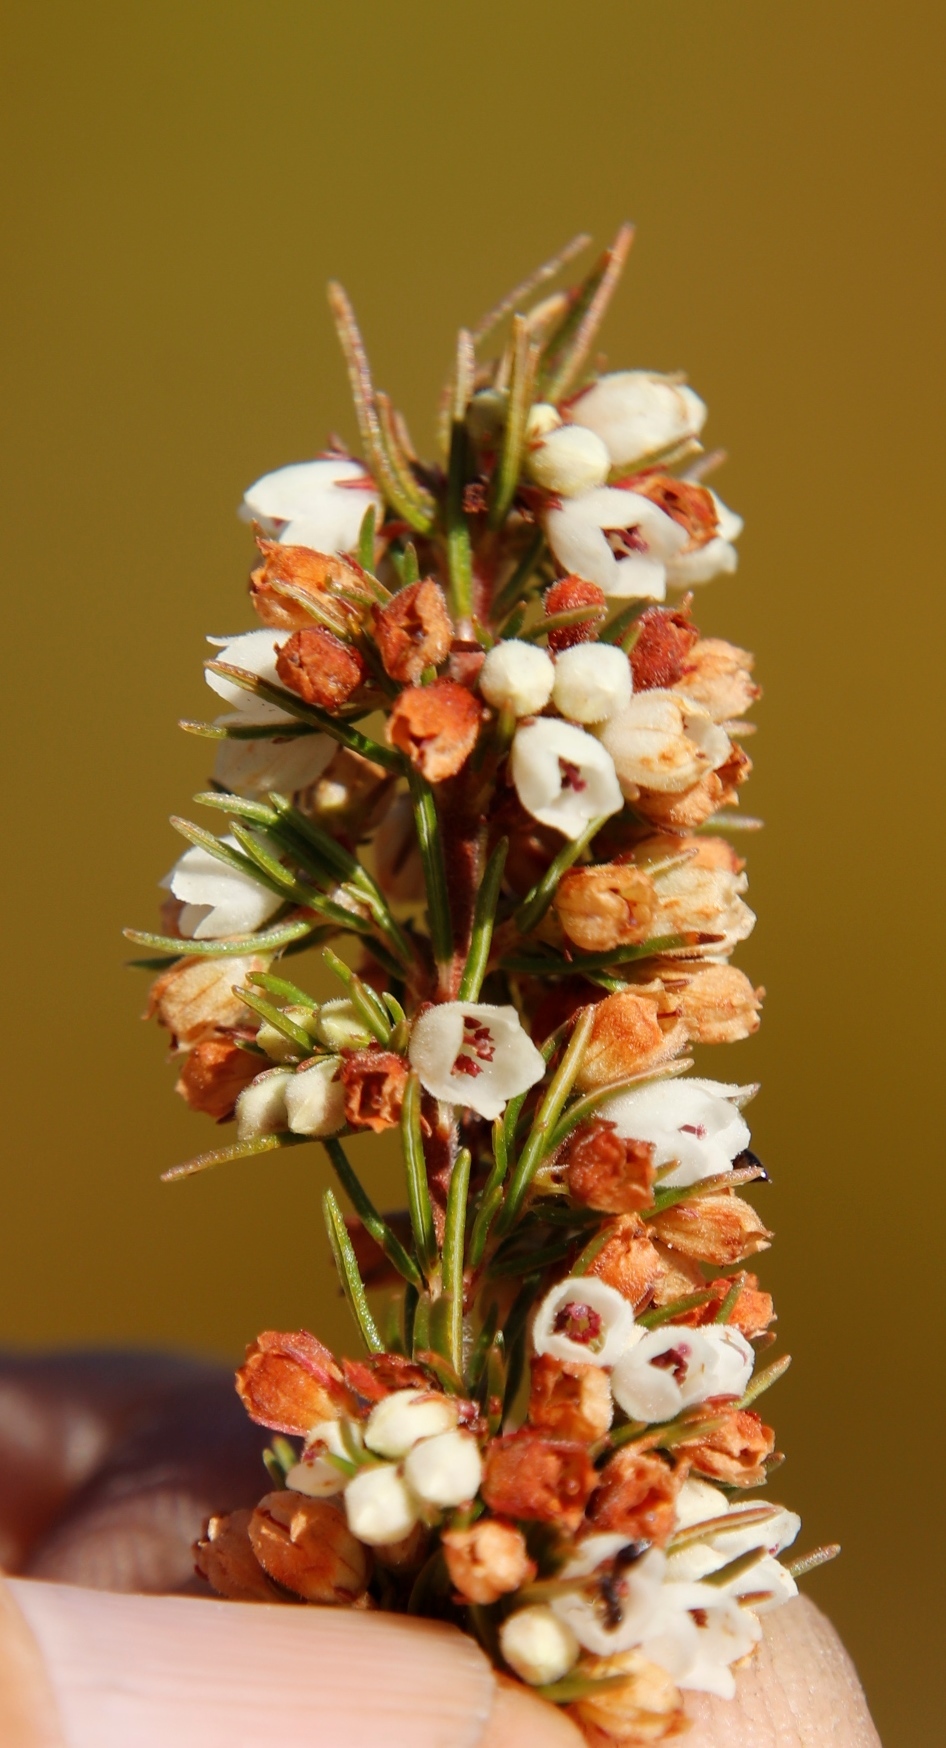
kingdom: Plantae
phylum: Tracheophyta
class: Magnoliopsida
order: Ericales
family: Ericaceae
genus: Erica
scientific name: Erica distorta
